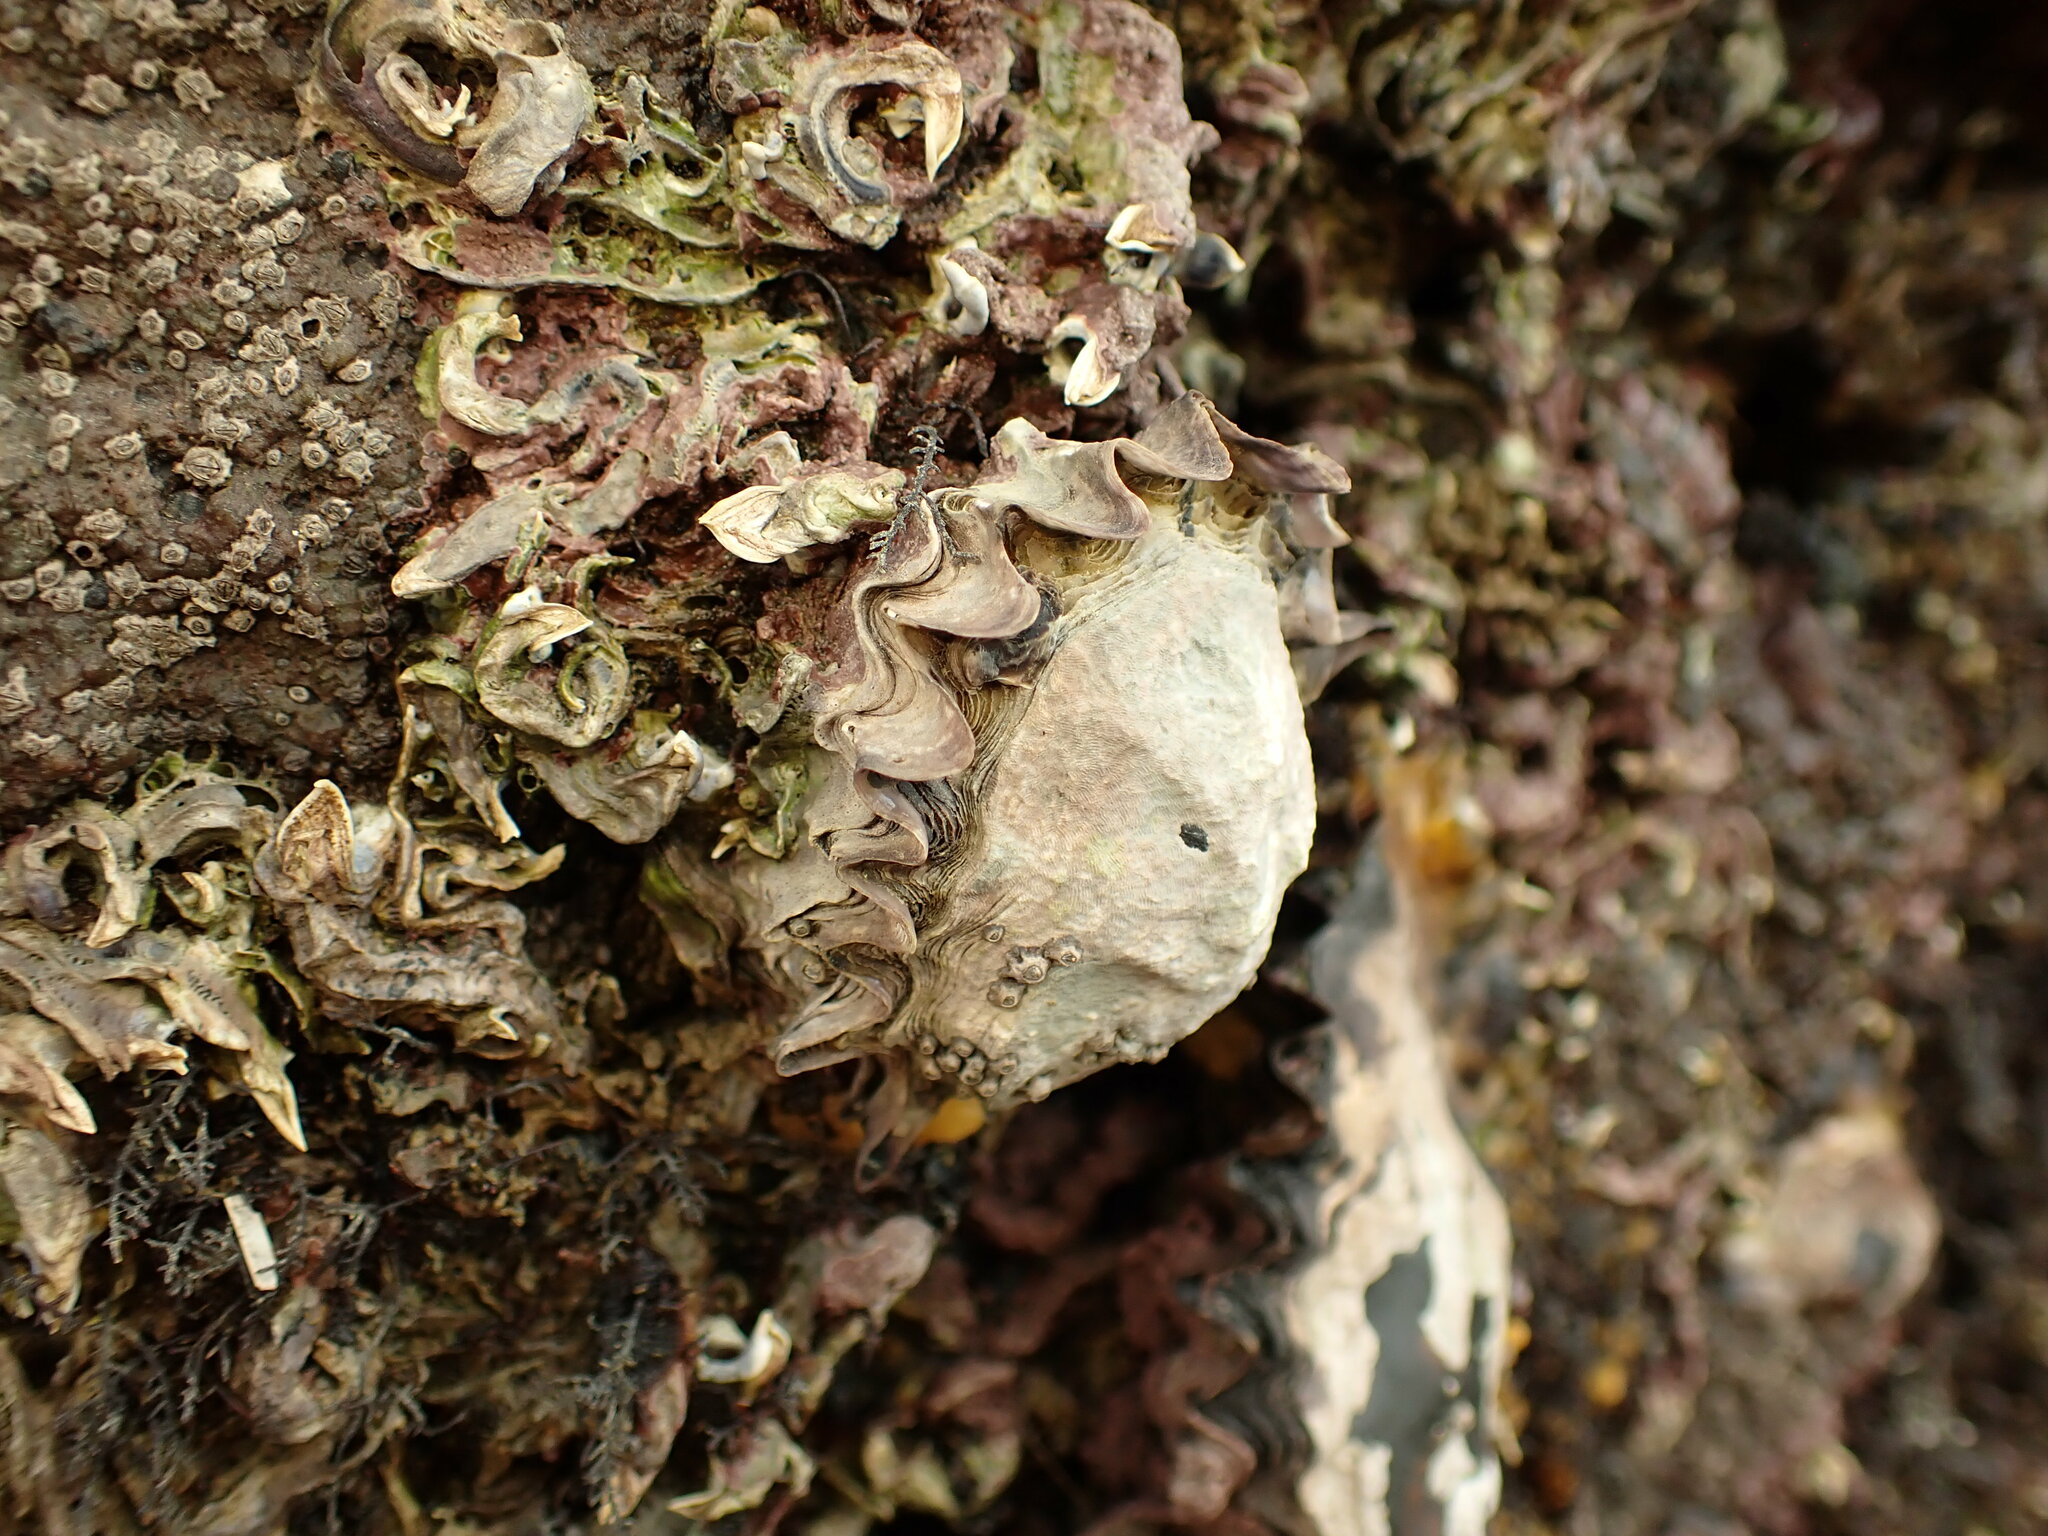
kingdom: Animalia
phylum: Mollusca
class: Bivalvia
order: Ostreida
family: Ostreidae
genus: Saccostrea
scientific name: Saccostrea glomerata
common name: Sydney cupped oyster
